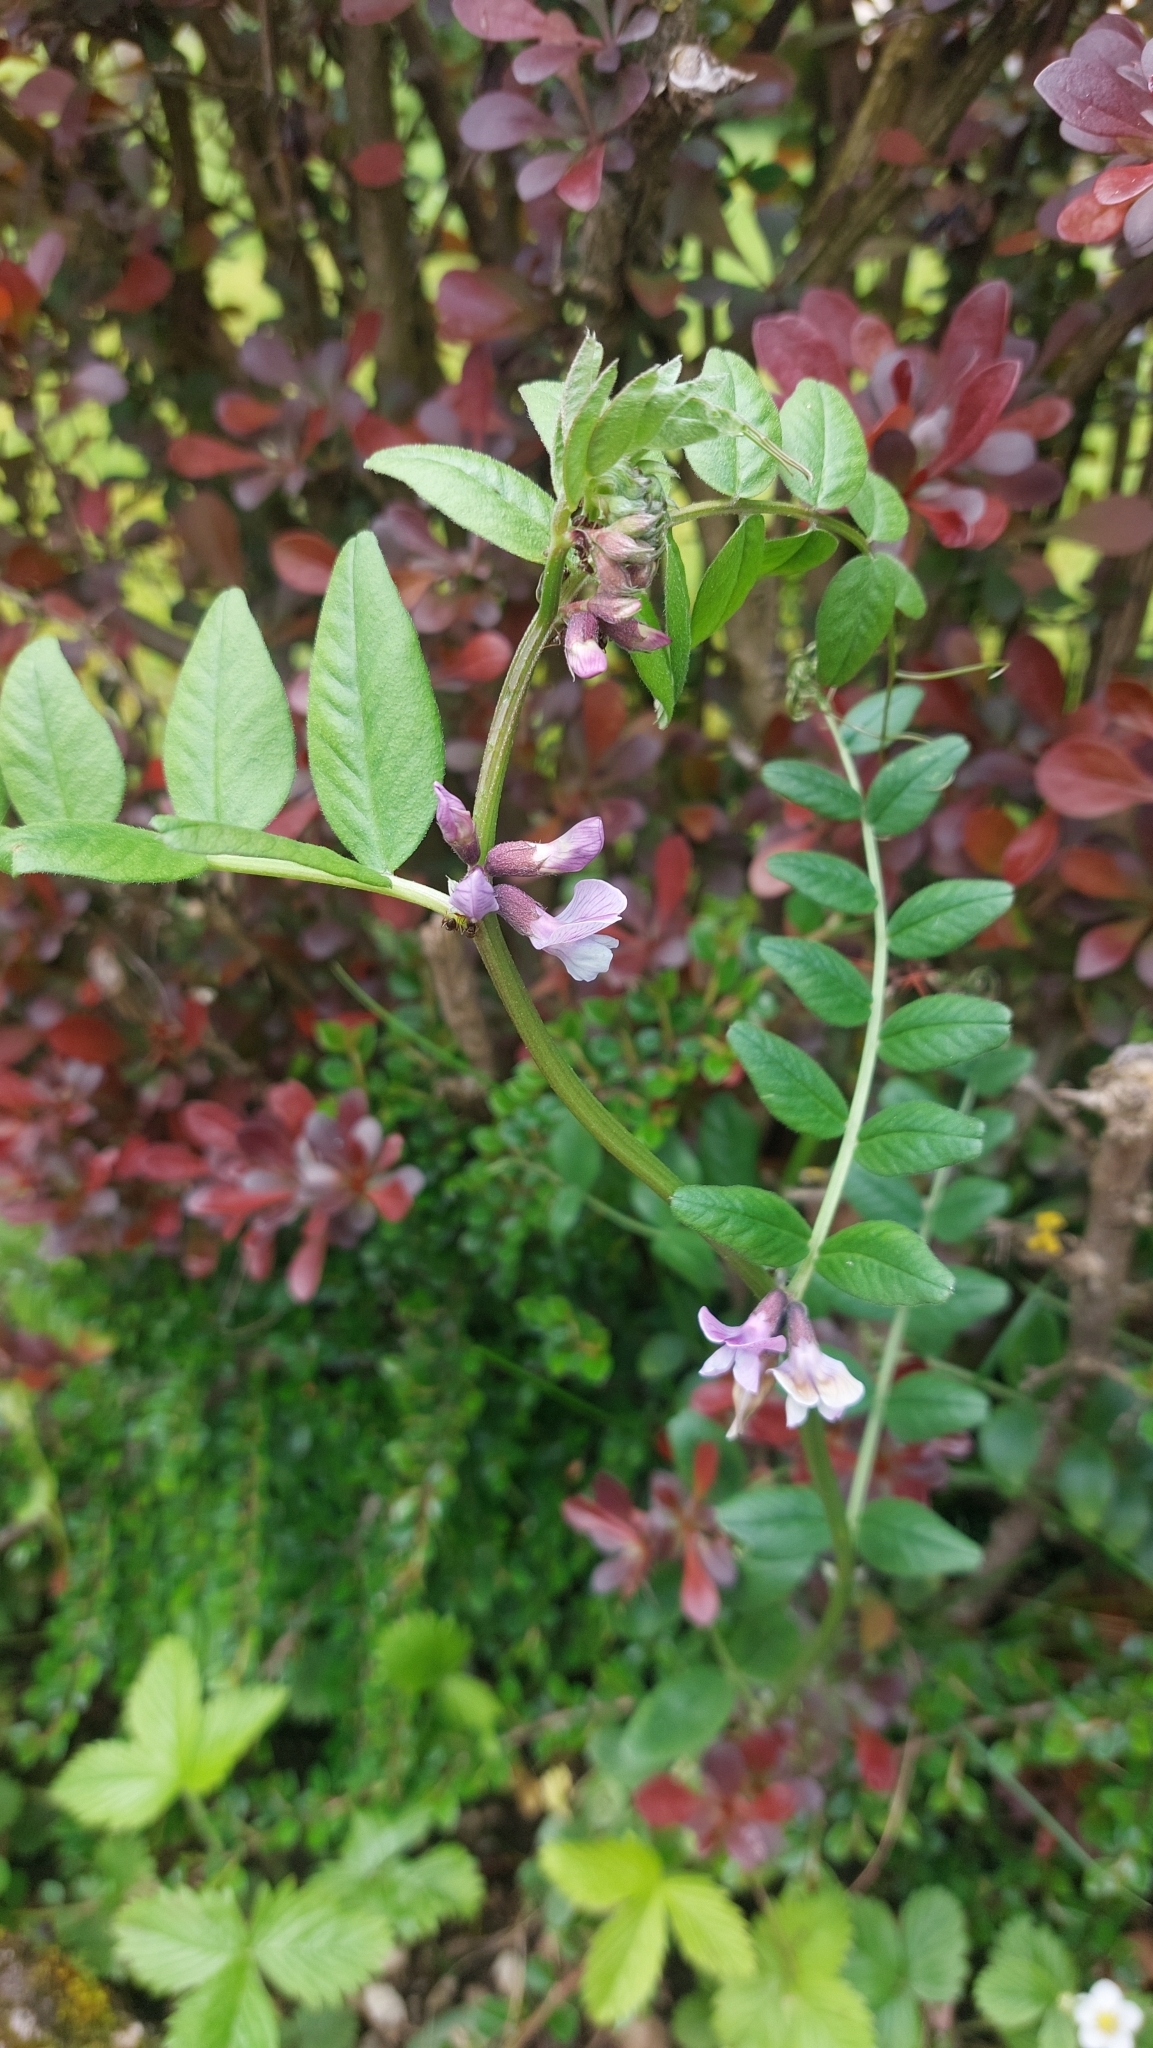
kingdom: Plantae
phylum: Tracheophyta
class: Magnoliopsida
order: Fabales
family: Fabaceae
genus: Vicia
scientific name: Vicia sepium
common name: Bush vetch
